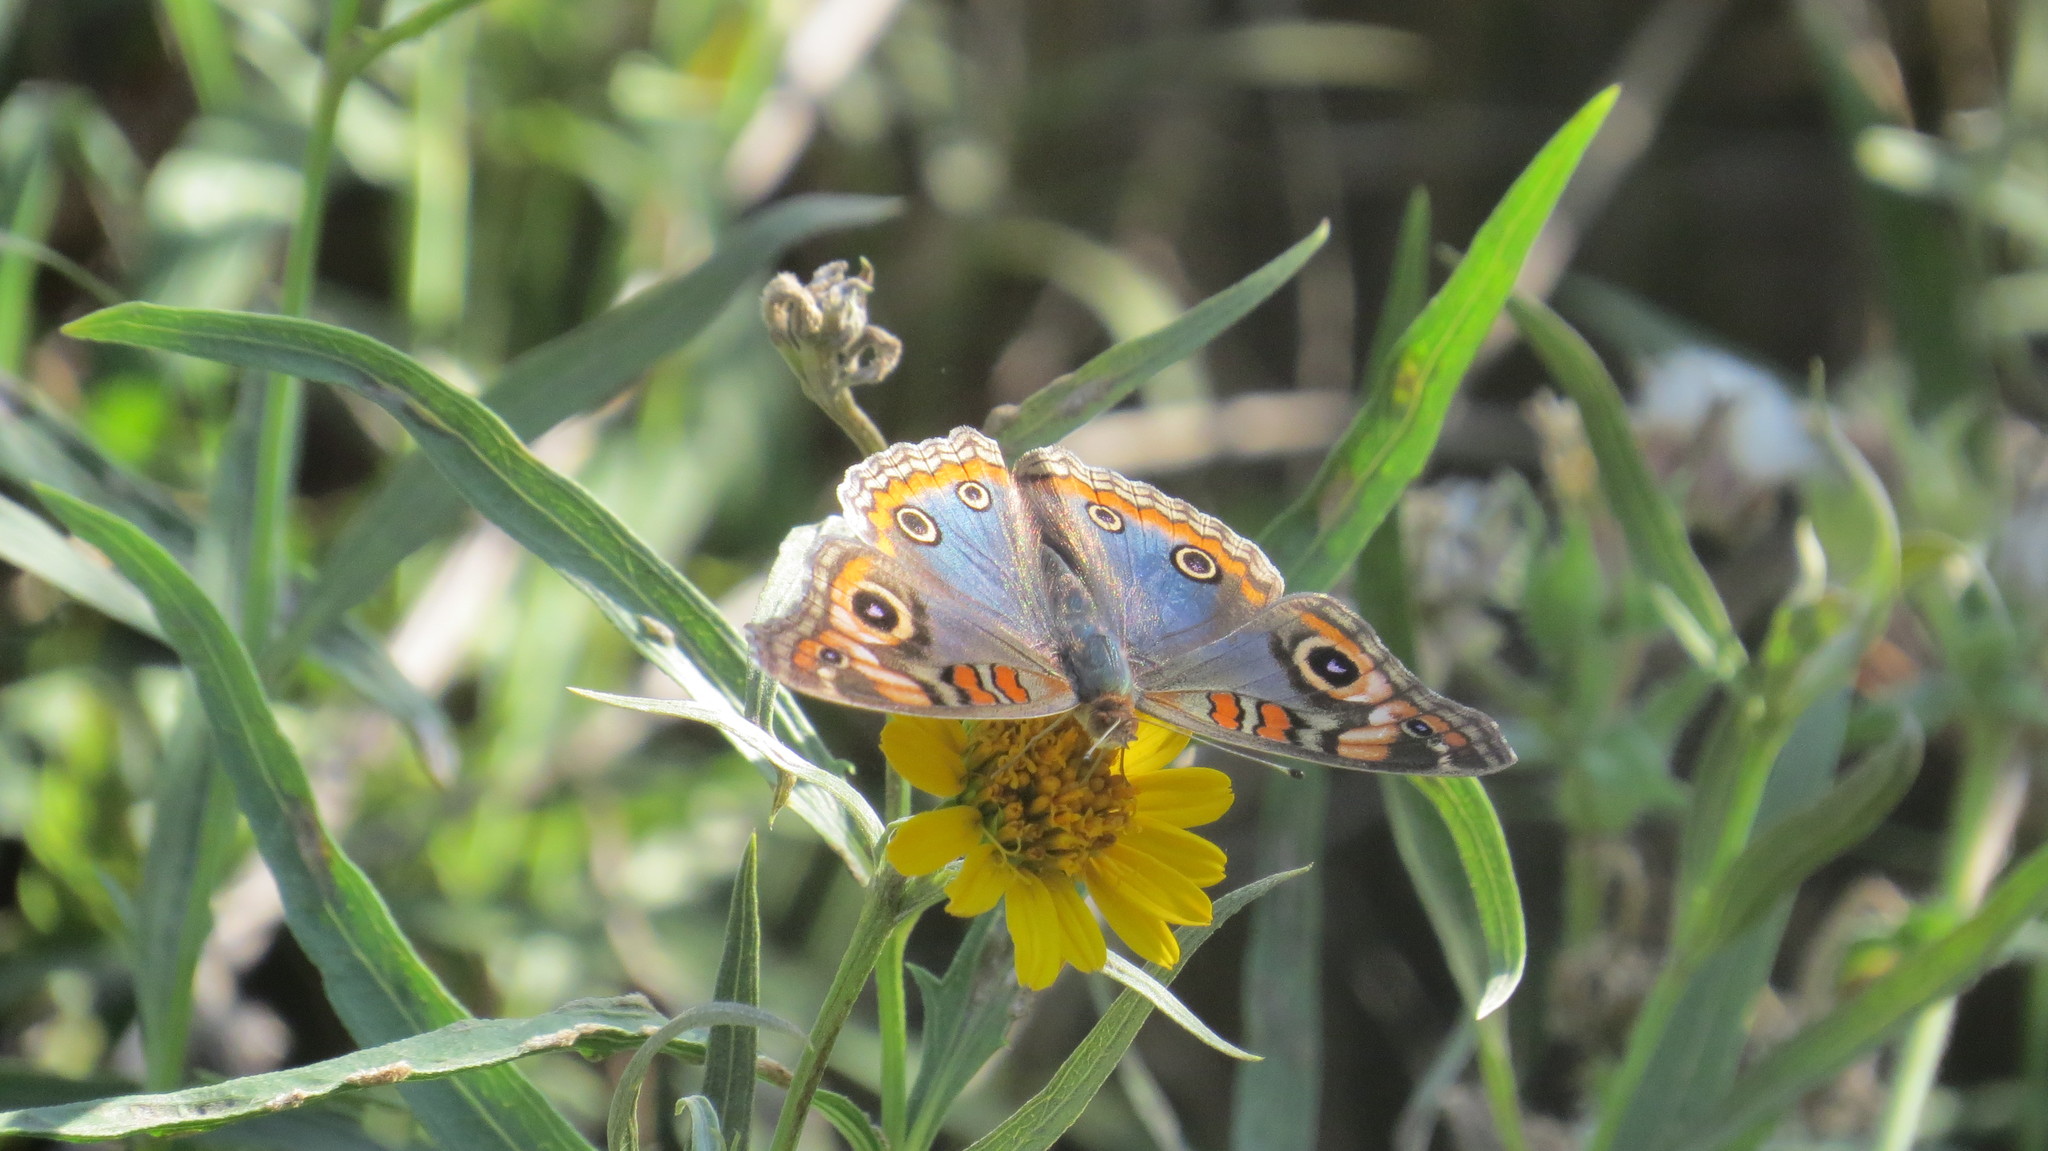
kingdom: Animalia
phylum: Arthropoda
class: Insecta
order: Lepidoptera
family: Nymphalidae
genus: Junonia
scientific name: Junonia lavinia
